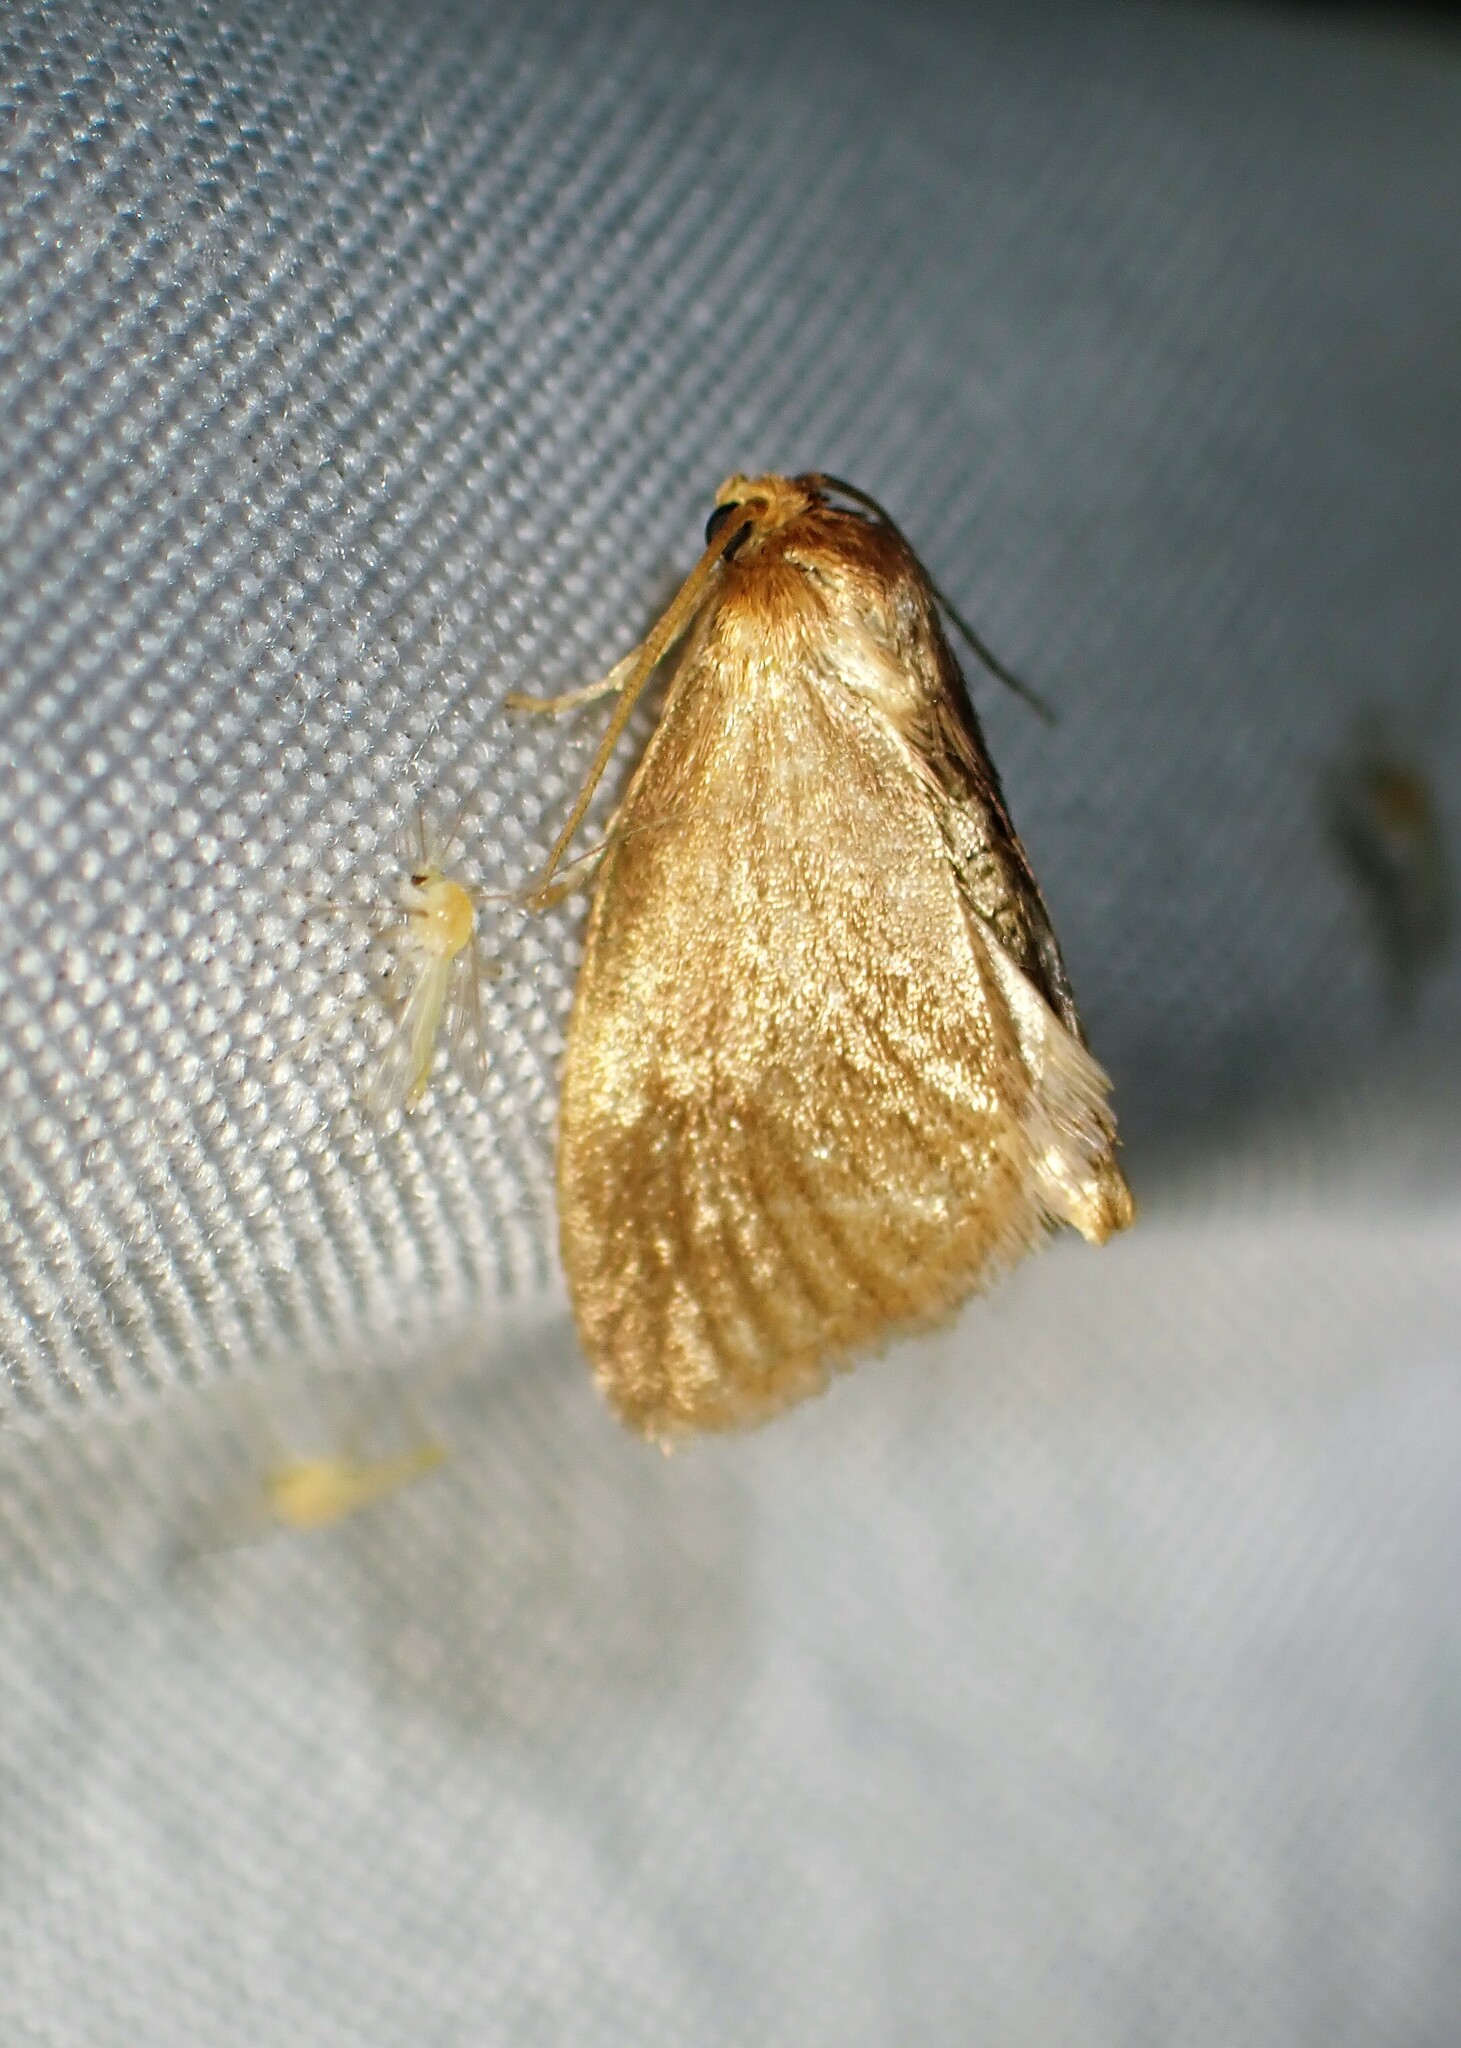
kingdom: Animalia
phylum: Arthropoda
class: Insecta
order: Lepidoptera
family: Limacodidae
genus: Tortricidia
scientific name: Tortricidia testacea
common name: Early button slug moth
